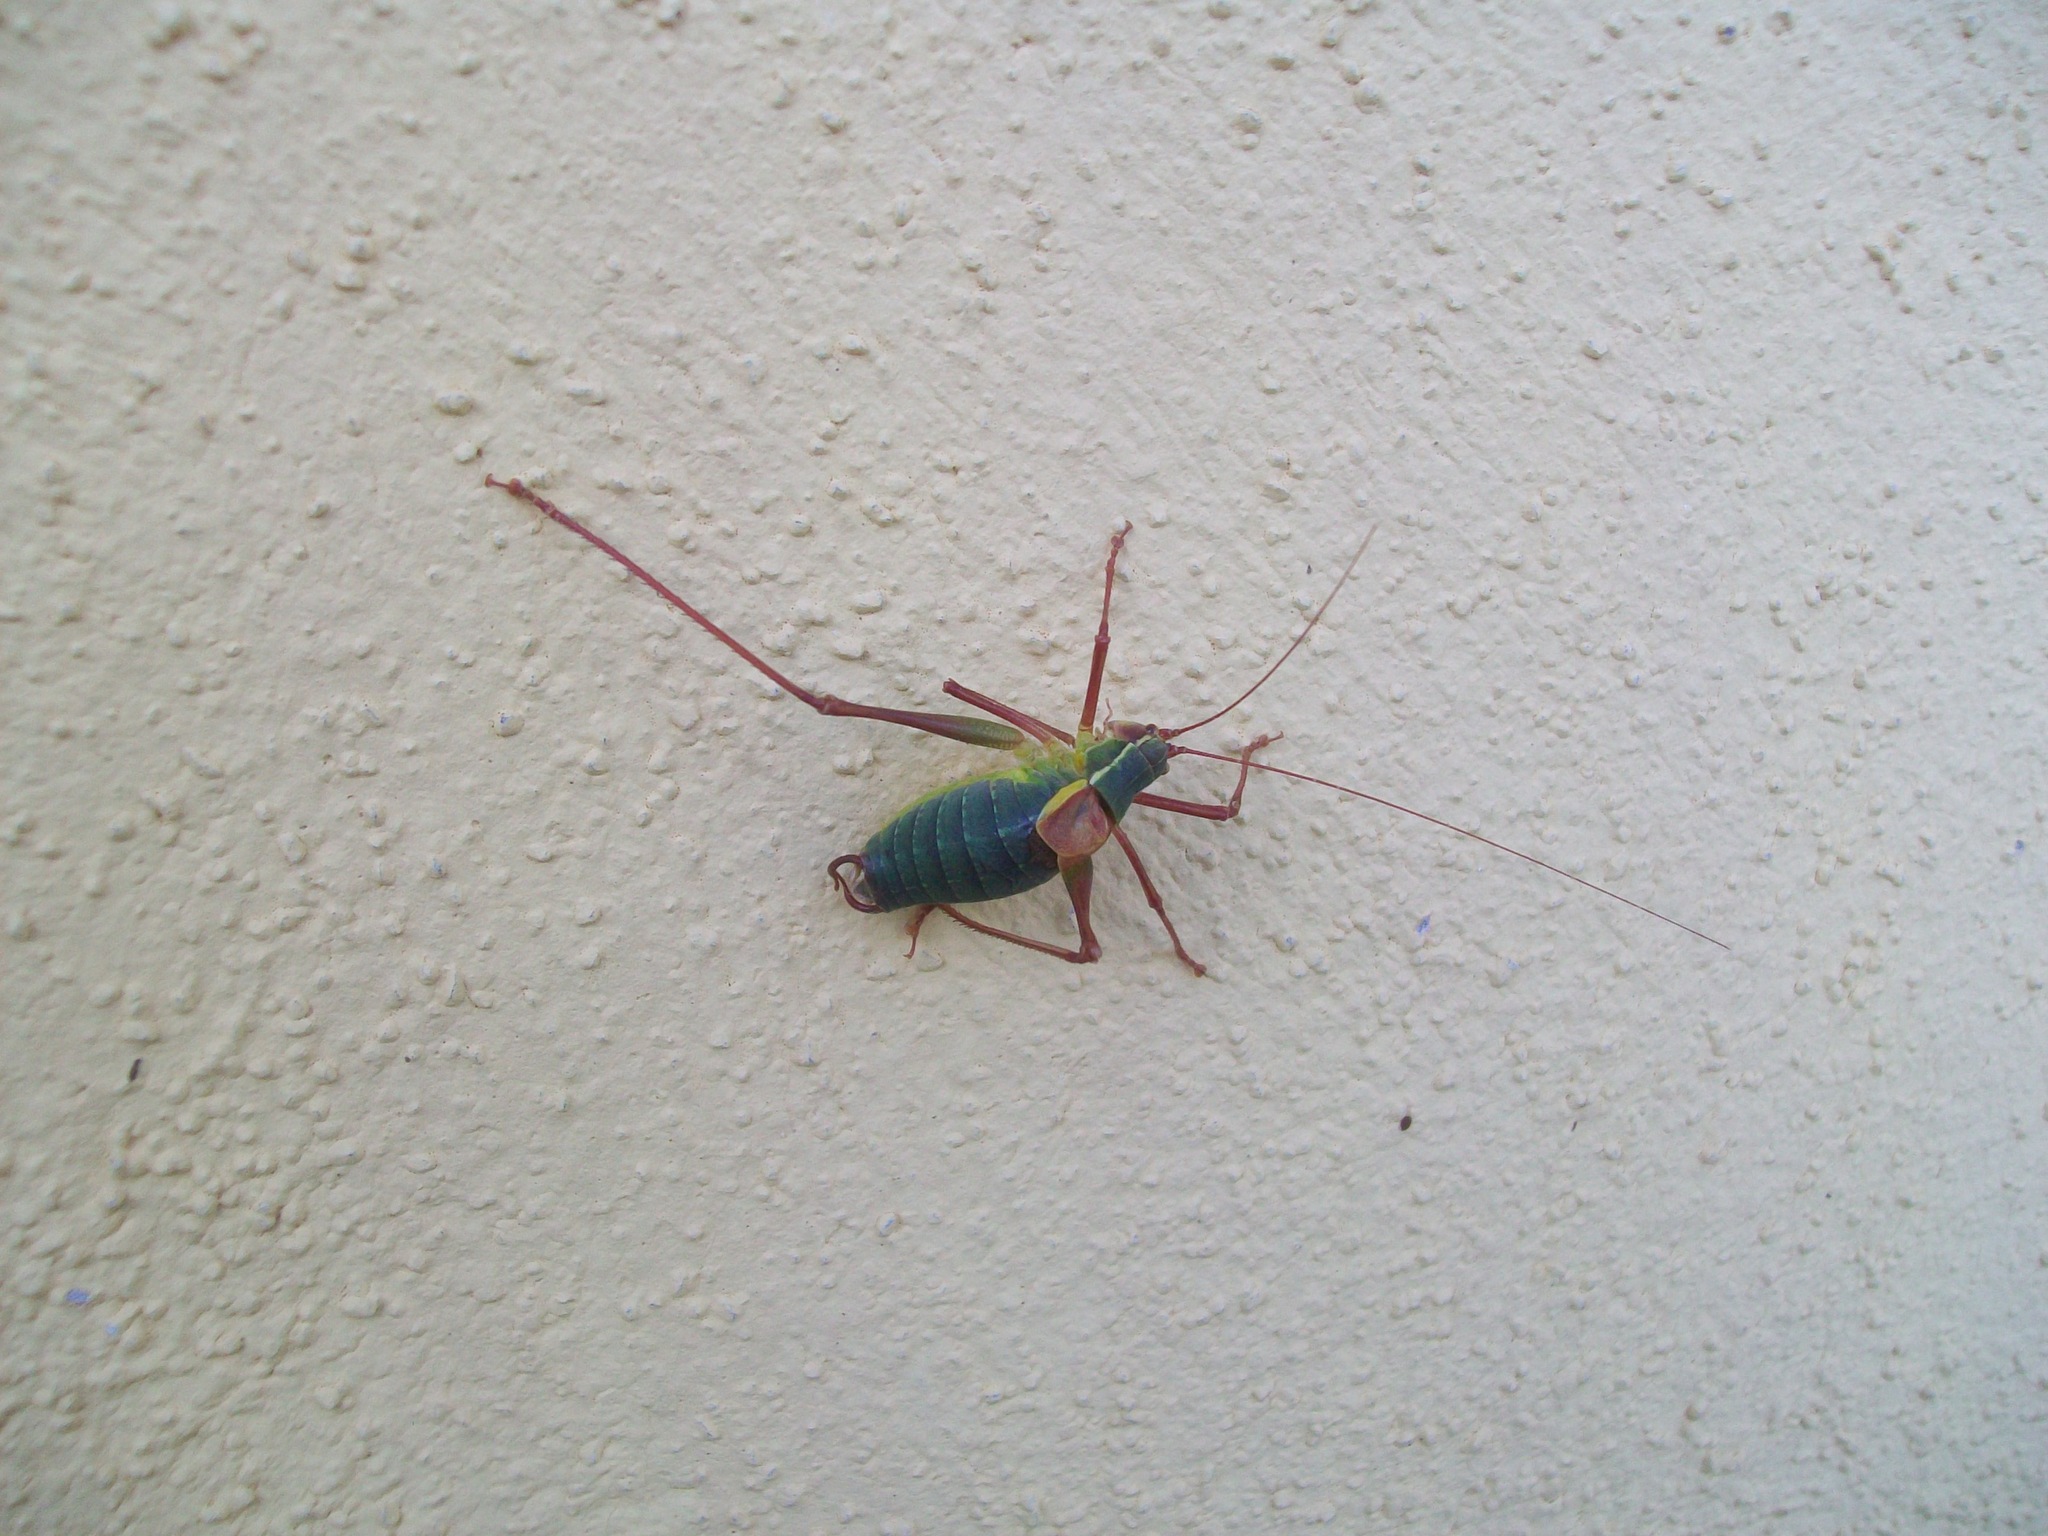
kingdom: Animalia
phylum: Arthropoda
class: Insecta
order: Orthoptera
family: Tettigoniidae
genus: Barbitistes
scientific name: Barbitistes obtusus
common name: Alpine saw bush-cricket
